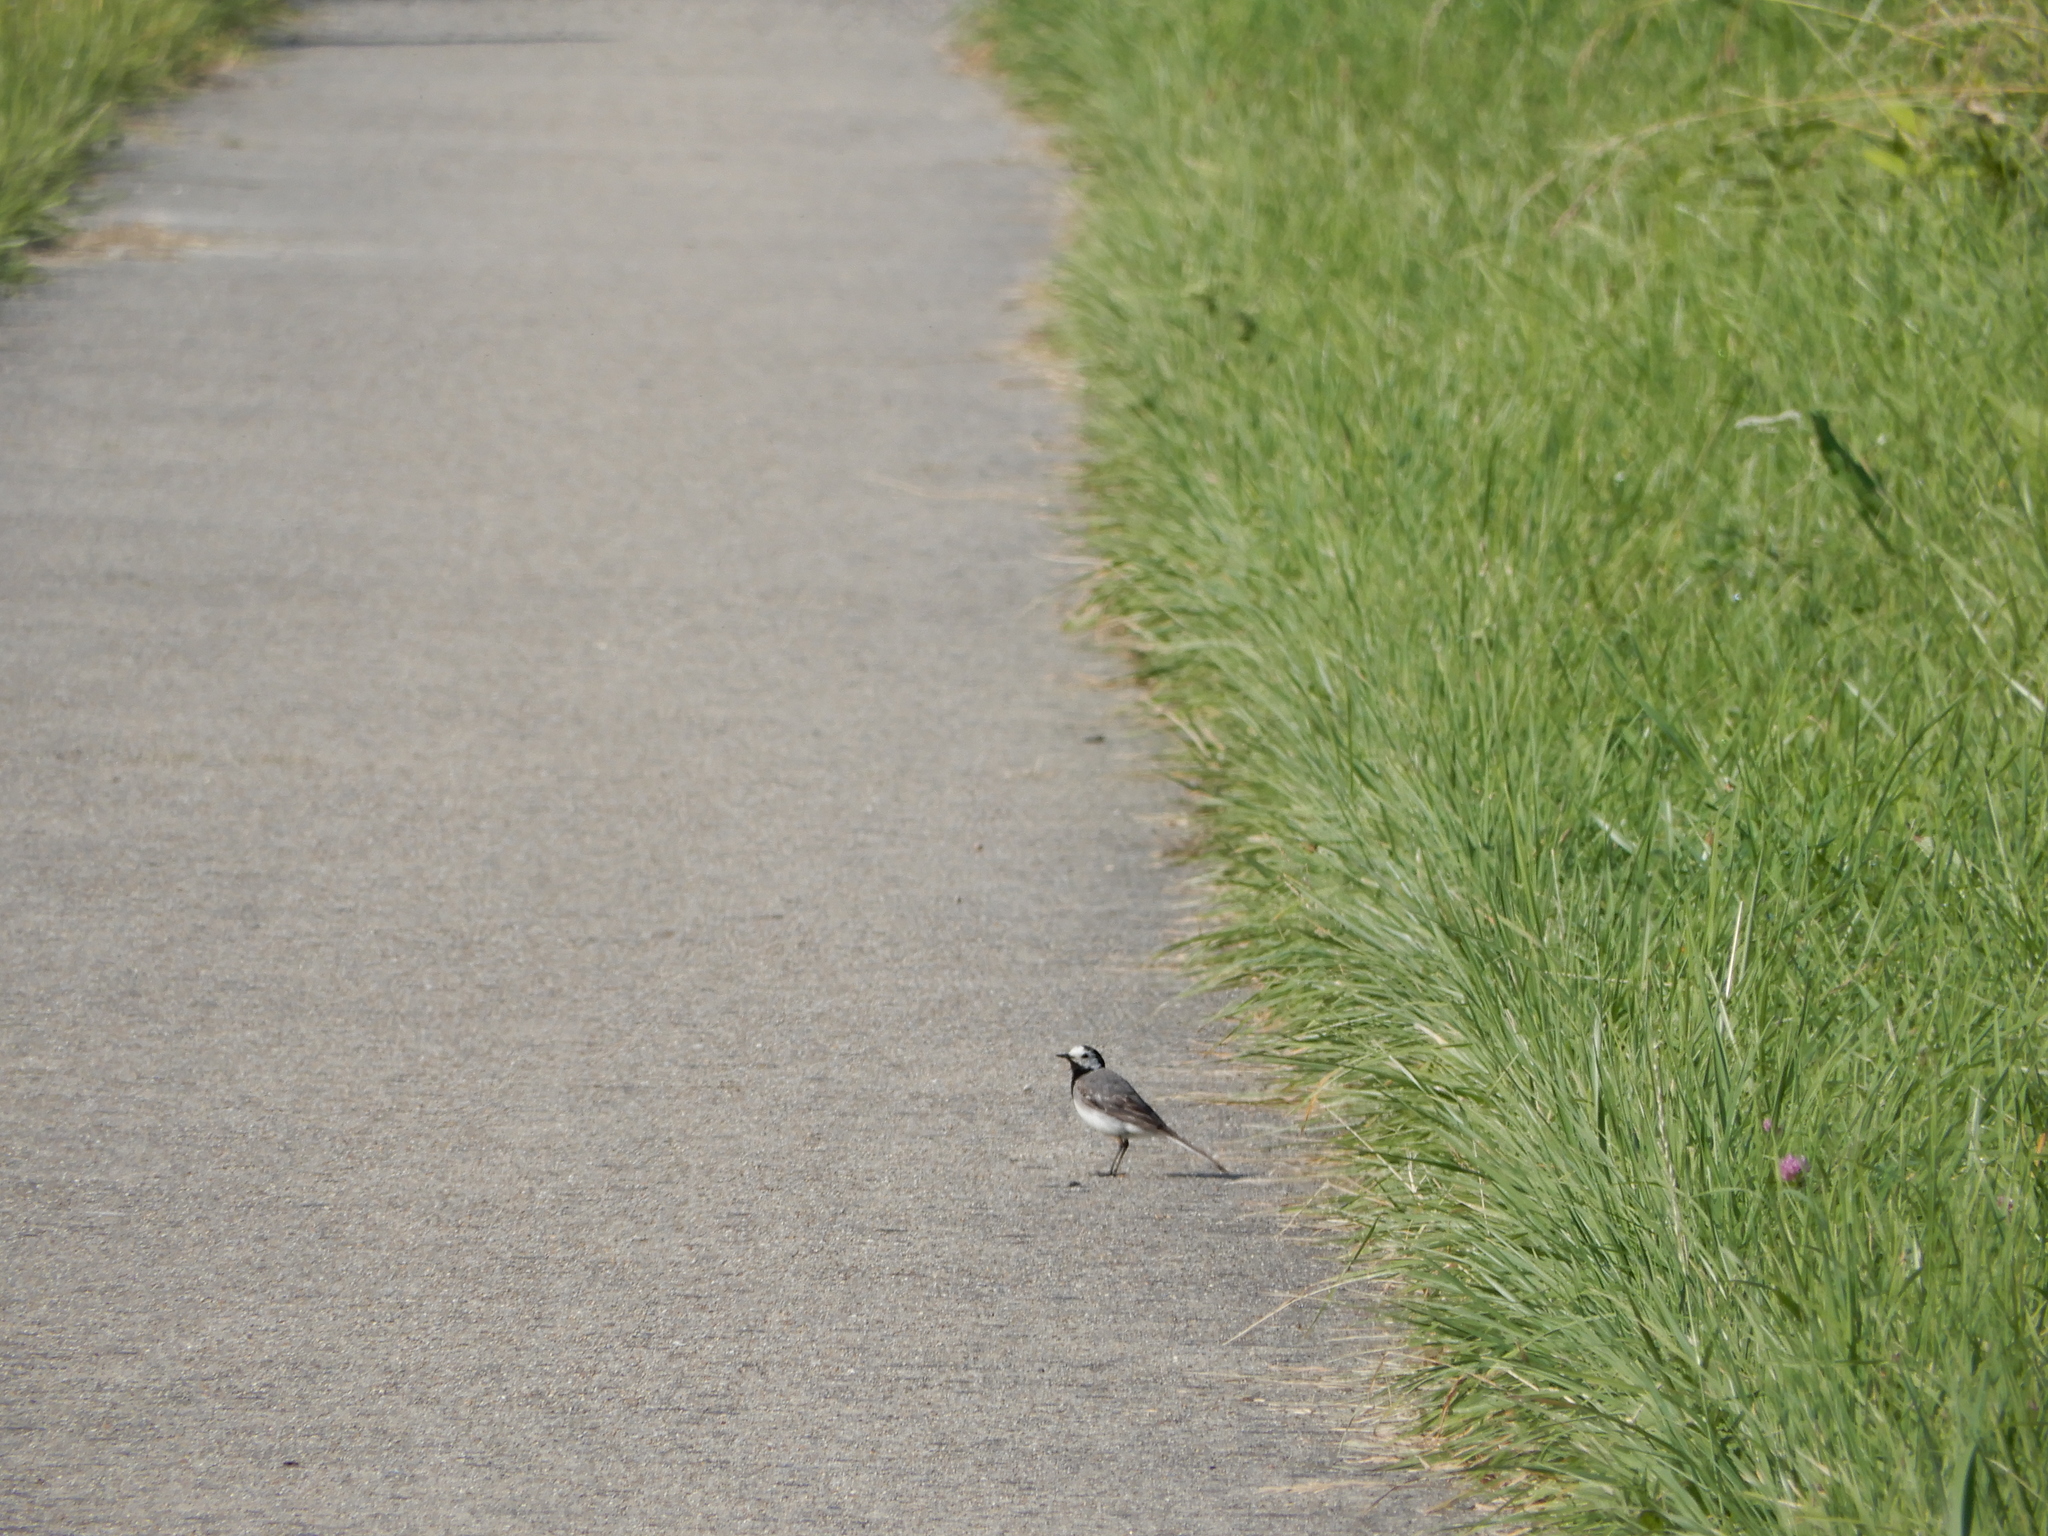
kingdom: Animalia
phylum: Chordata
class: Aves
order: Passeriformes
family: Motacillidae
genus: Motacilla
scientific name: Motacilla alba
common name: White wagtail
